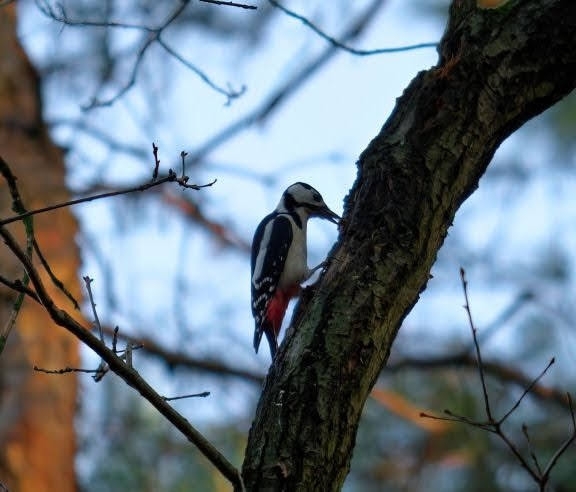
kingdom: Animalia
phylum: Chordata
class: Aves
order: Piciformes
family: Picidae
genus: Dendrocopos
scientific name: Dendrocopos major
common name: Great spotted woodpecker
